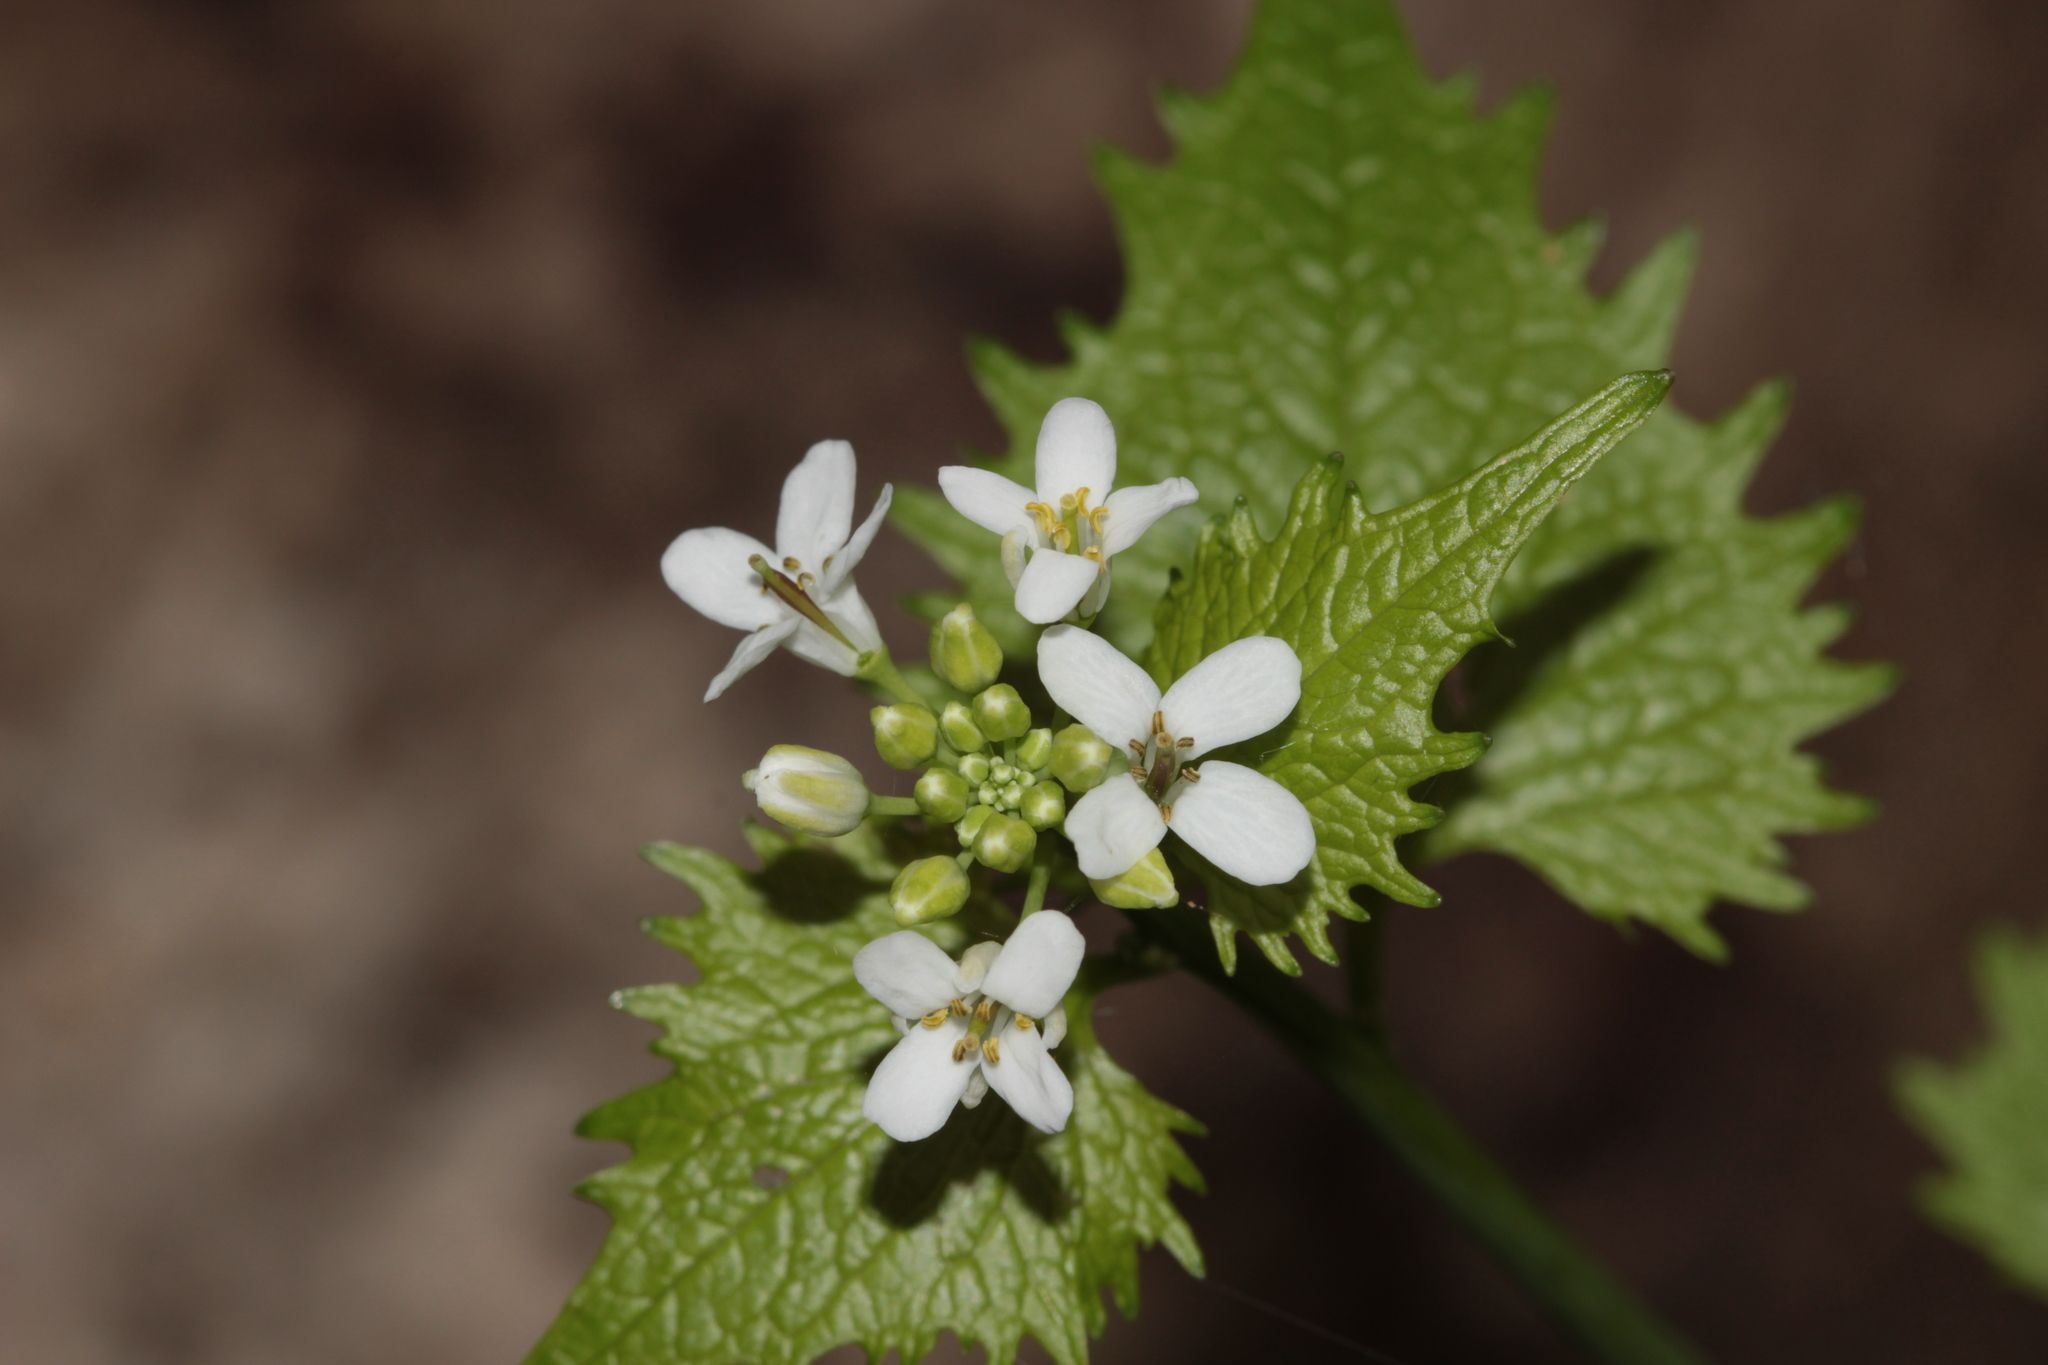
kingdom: Plantae
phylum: Tracheophyta
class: Magnoliopsida
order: Brassicales
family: Brassicaceae
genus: Alliaria
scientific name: Alliaria petiolata
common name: Garlic mustard
